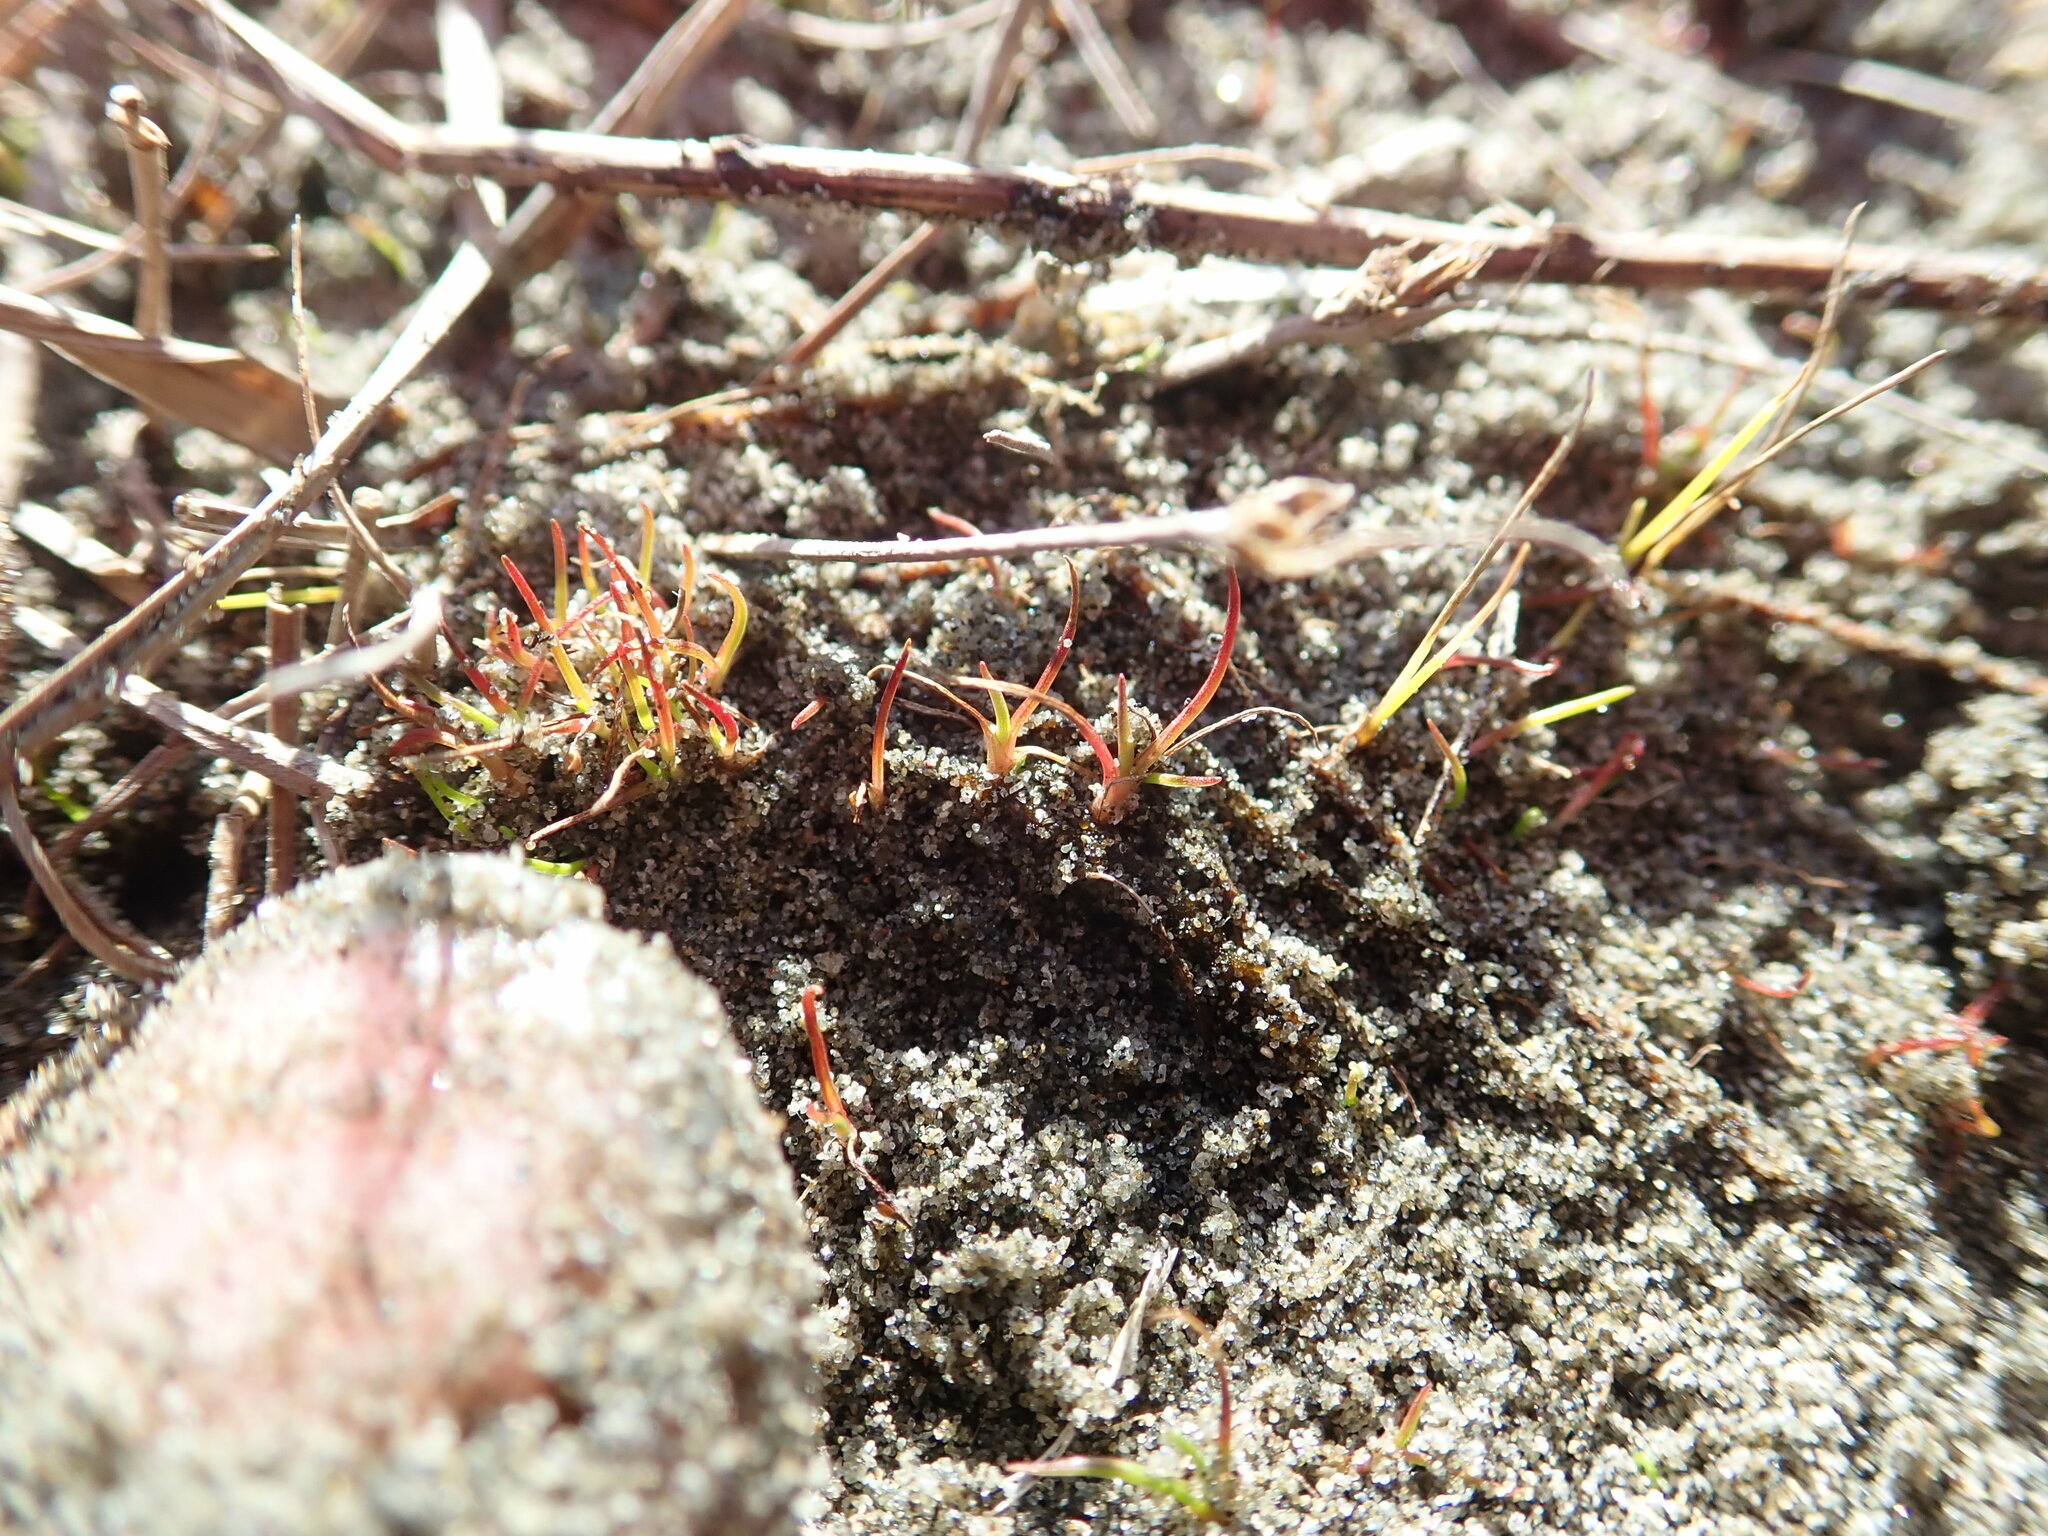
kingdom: Plantae
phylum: Tracheophyta
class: Liliopsida
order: Poales
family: Juncaceae
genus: Juncus
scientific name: Juncus caespiticius
